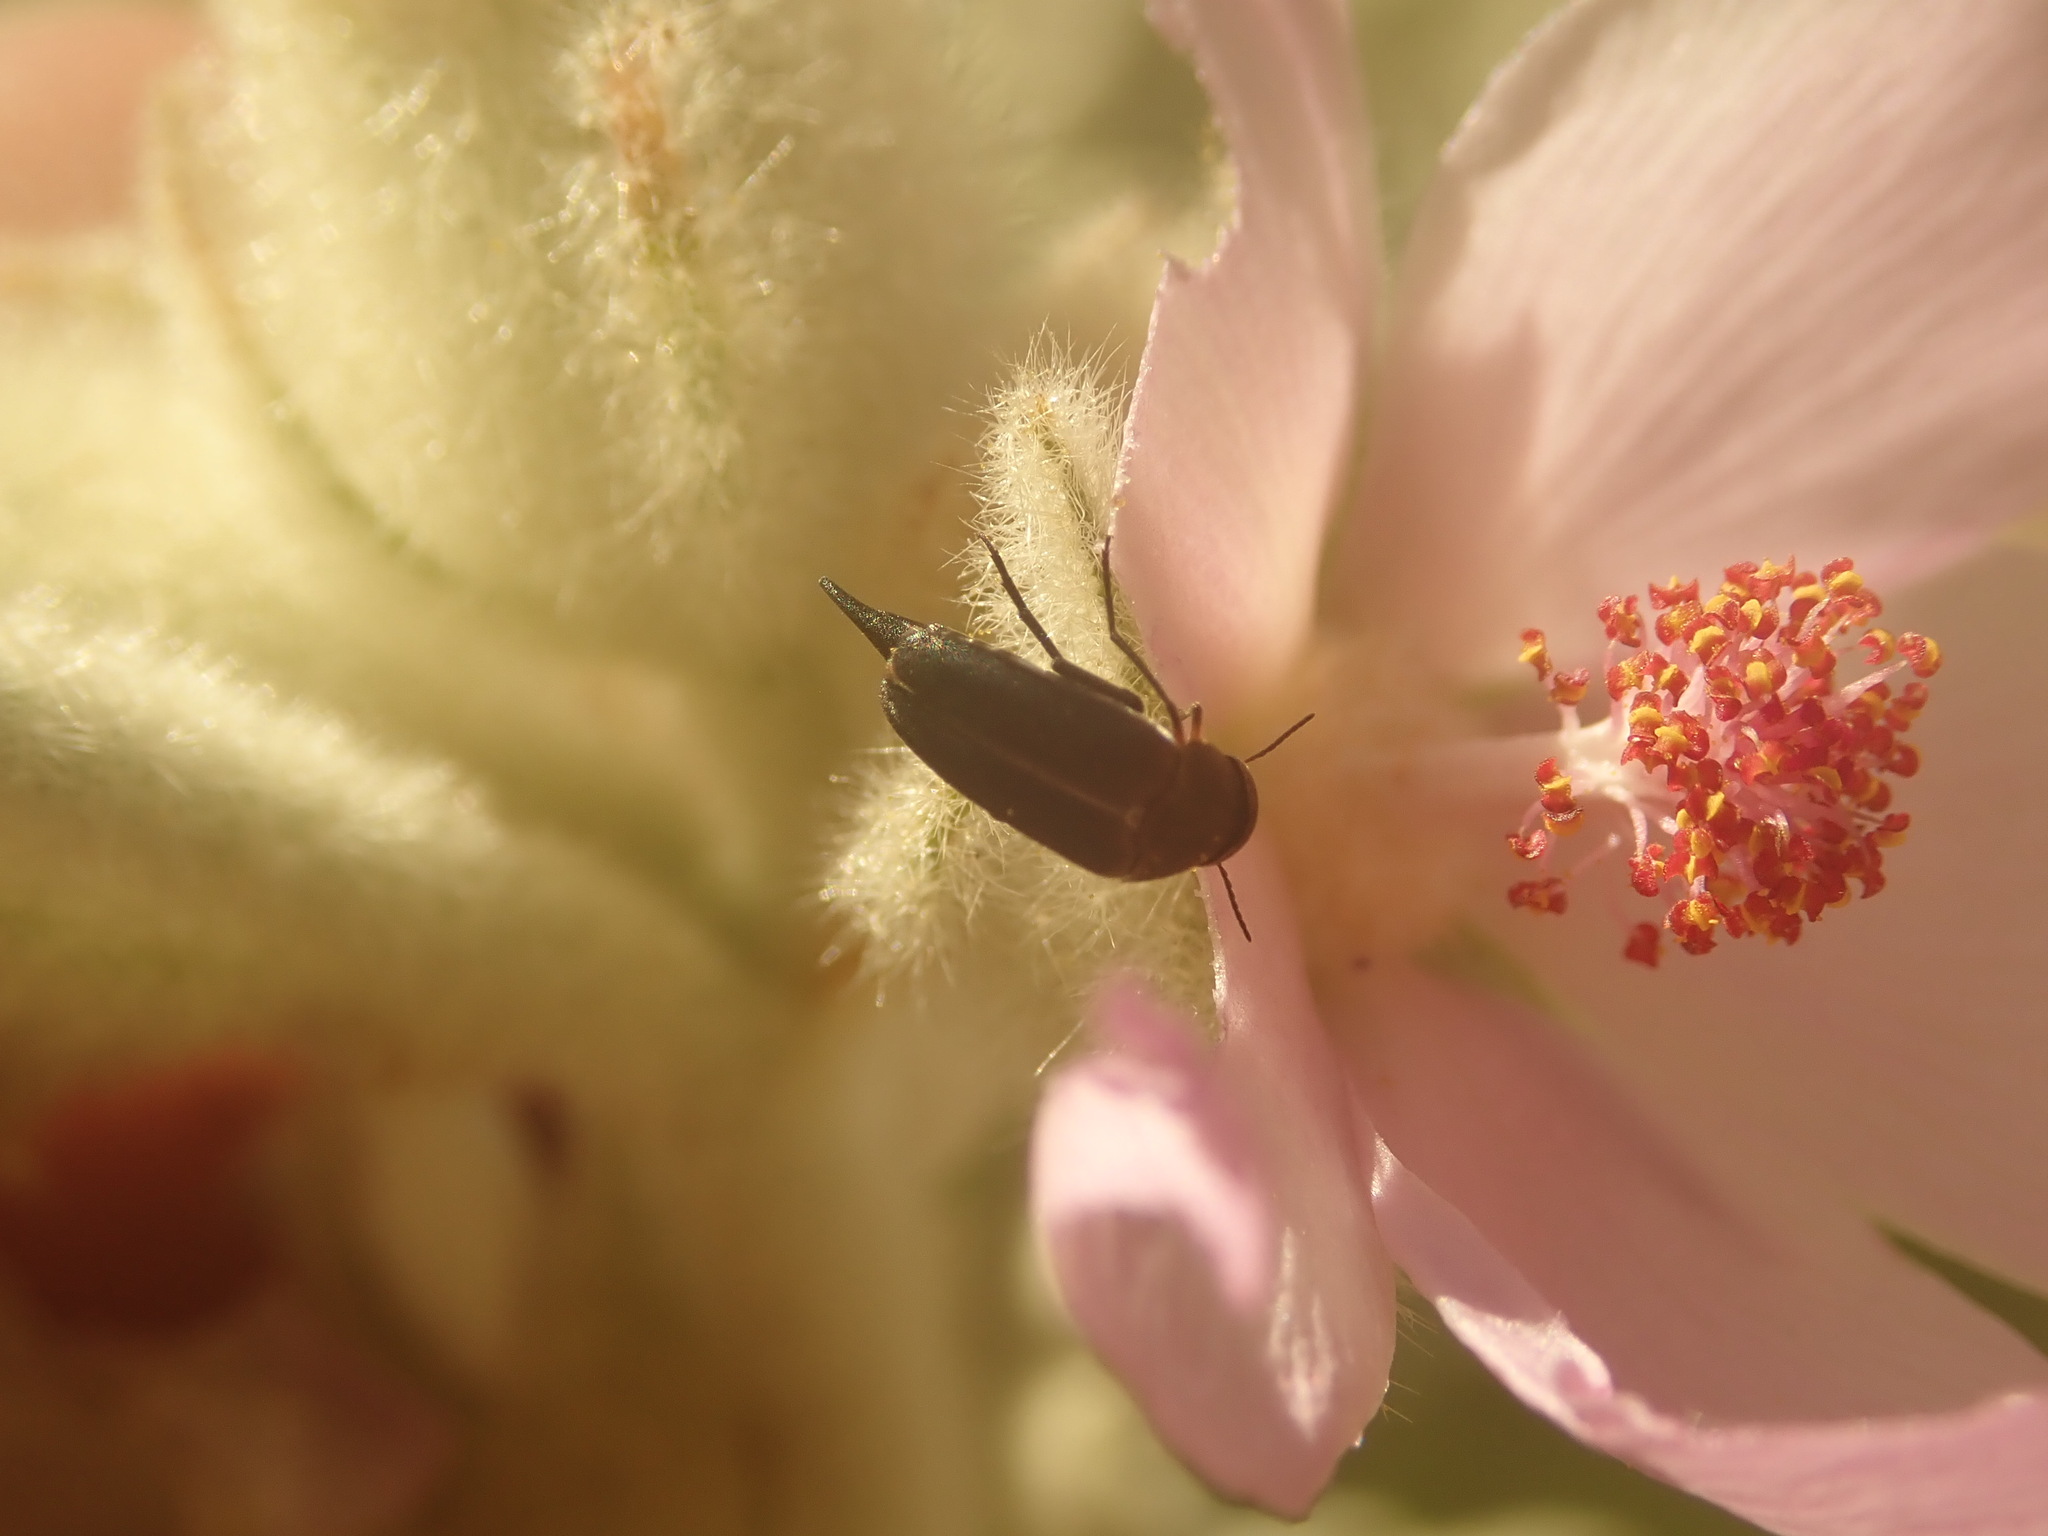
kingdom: Animalia
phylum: Arthropoda
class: Insecta
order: Coleoptera
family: Mordellidae
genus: Mordella
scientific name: Mordella hubbsi
